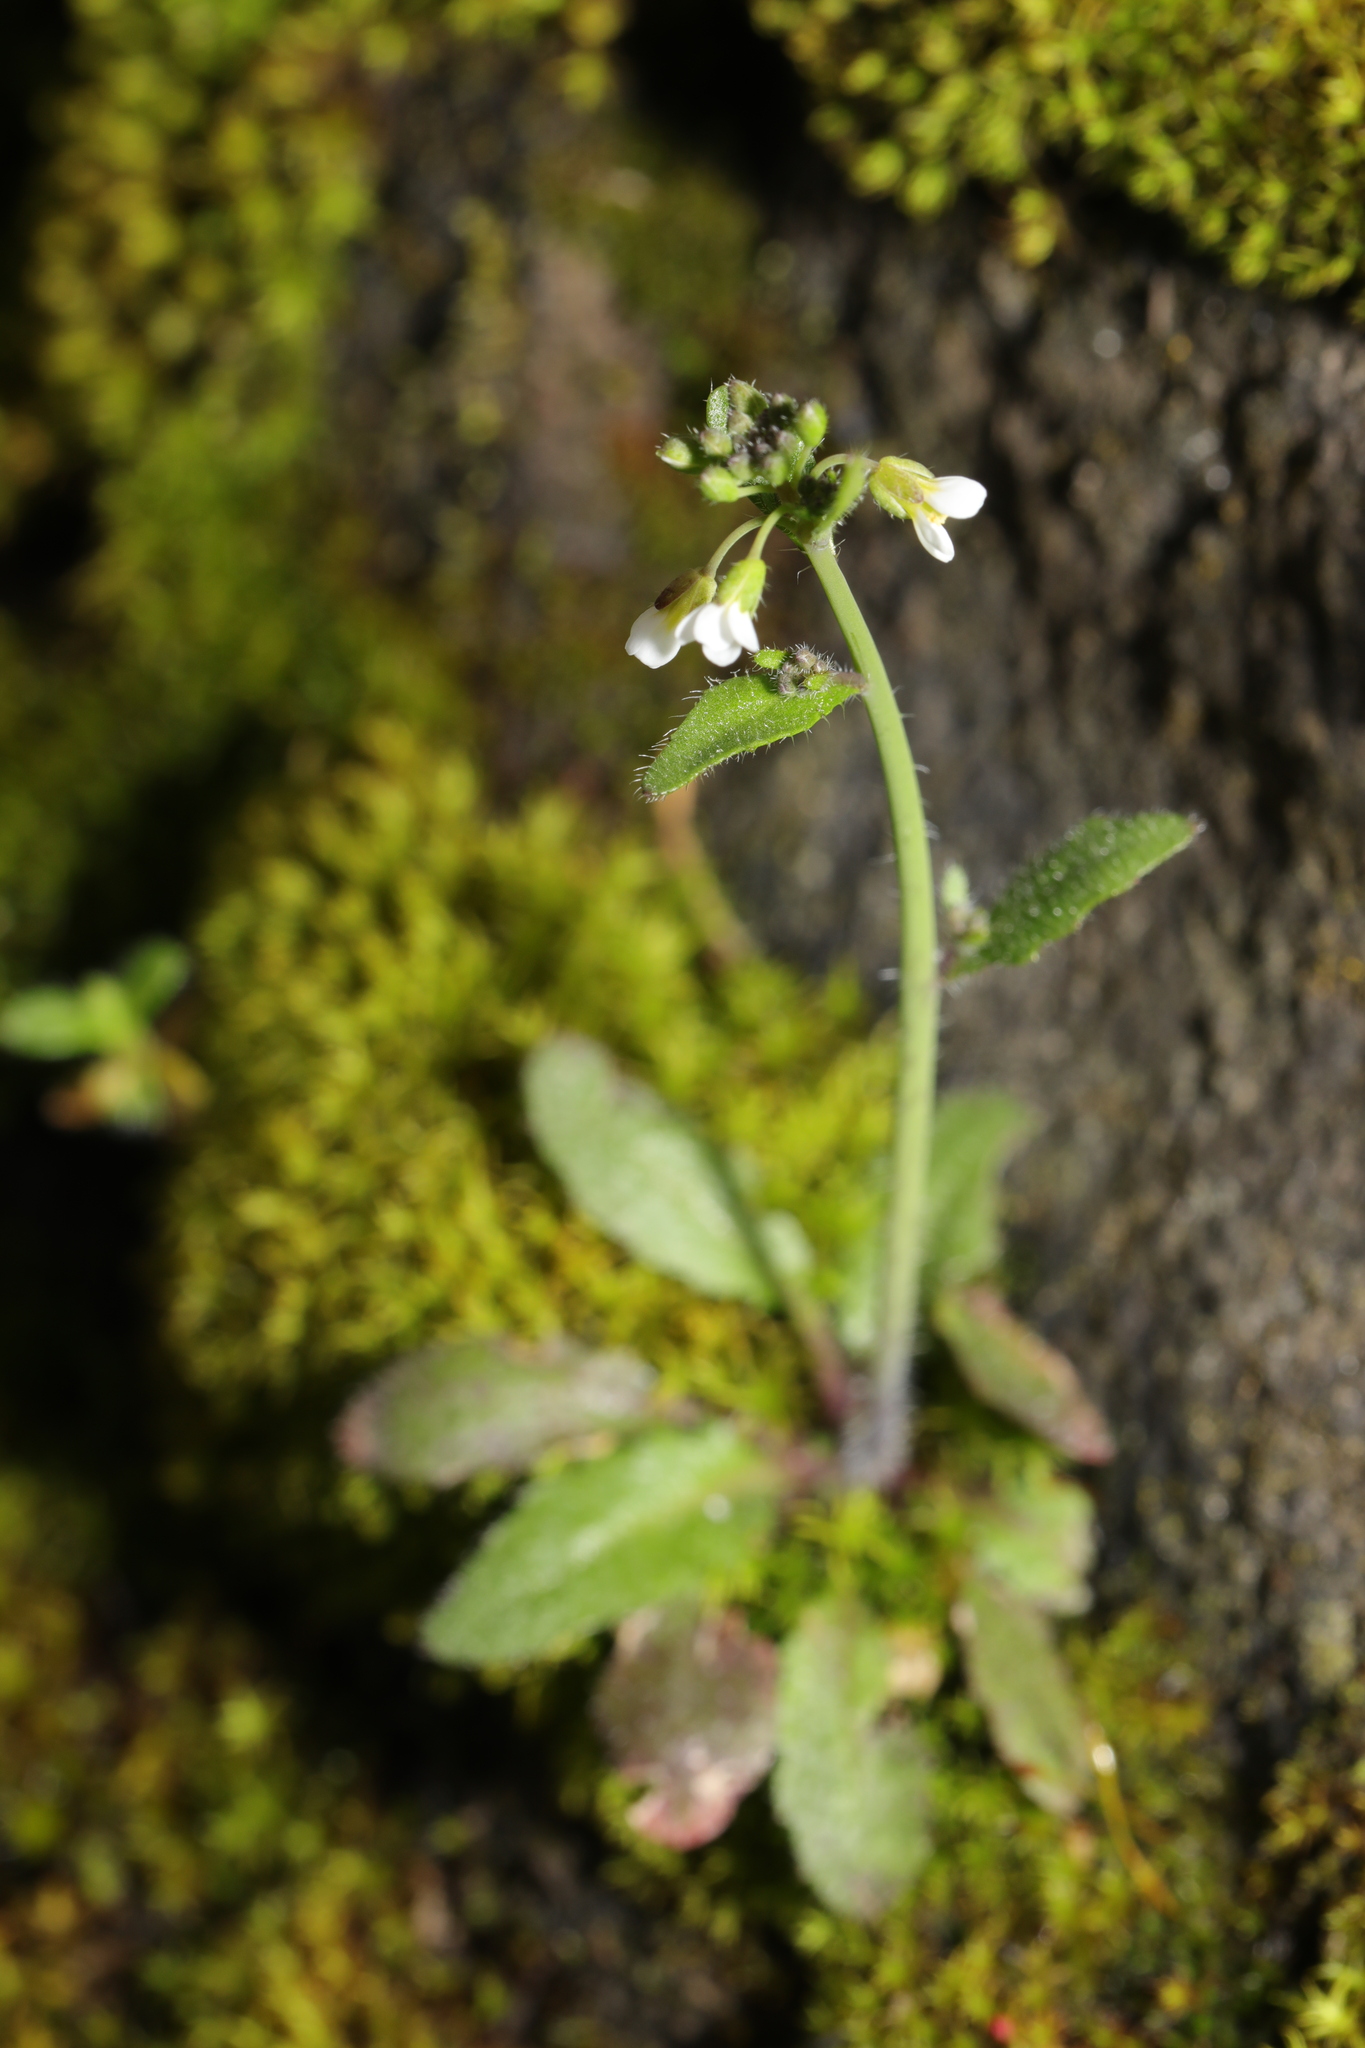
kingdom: Plantae
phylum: Tracheophyta
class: Magnoliopsida
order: Brassicales
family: Brassicaceae
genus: Arabidopsis
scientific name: Arabidopsis thaliana
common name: Thale cress
